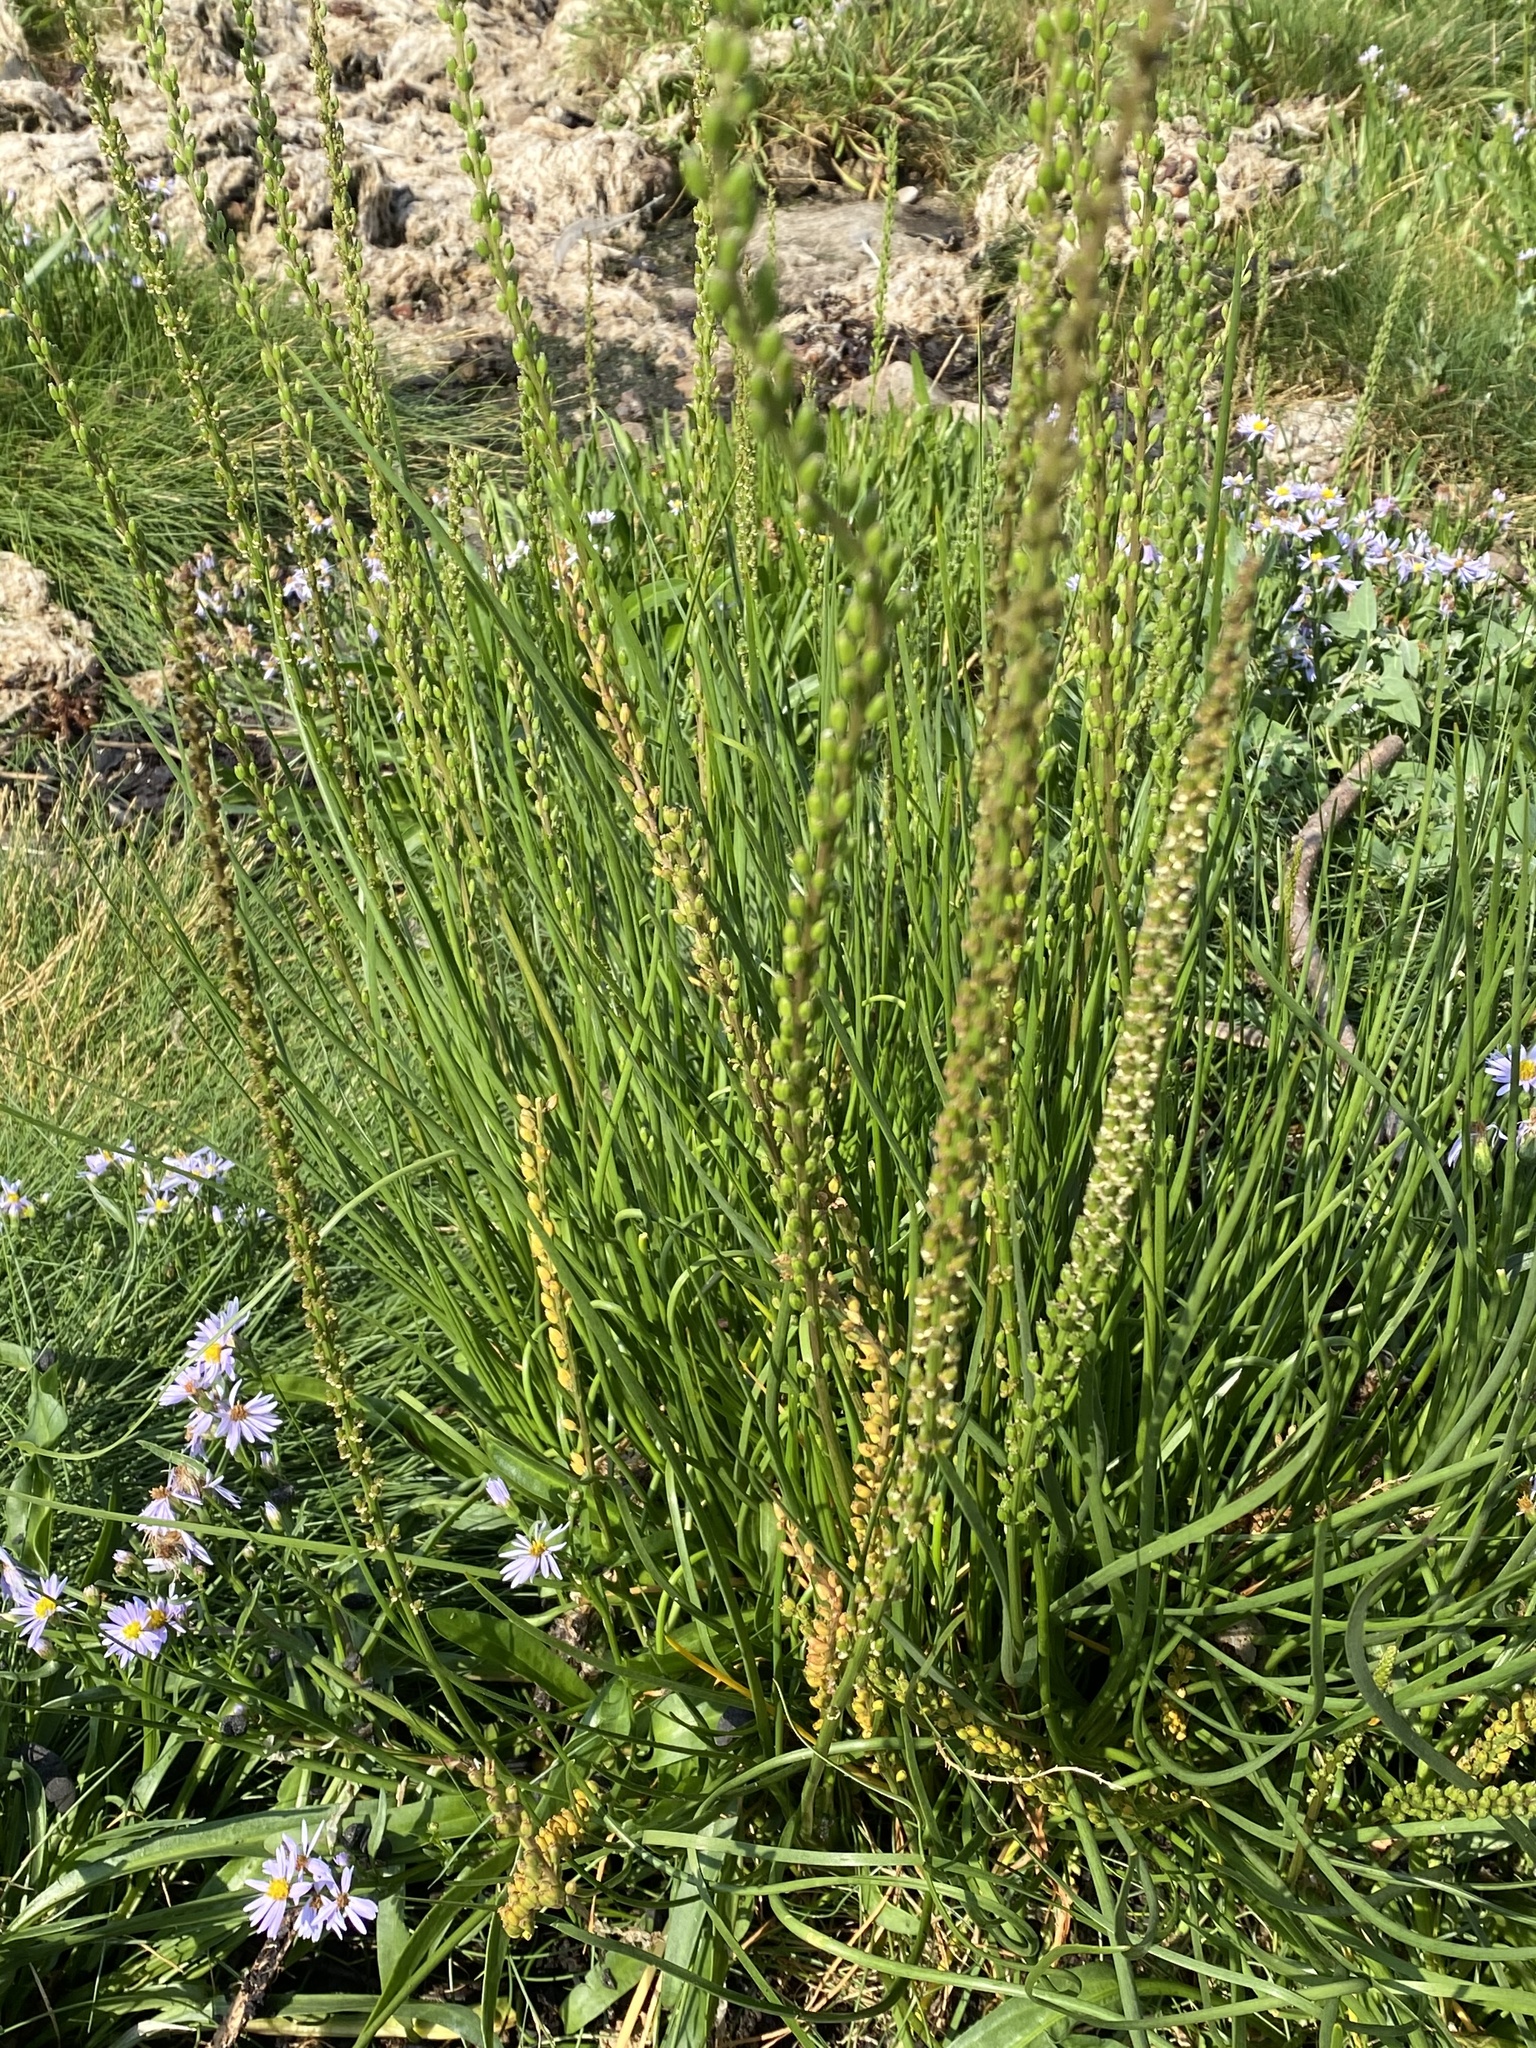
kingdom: Plantae
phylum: Tracheophyta
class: Liliopsida
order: Alismatales
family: Juncaginaceae
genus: Triglochin
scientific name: Triglochin maritima
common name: Sea arrowgrass
